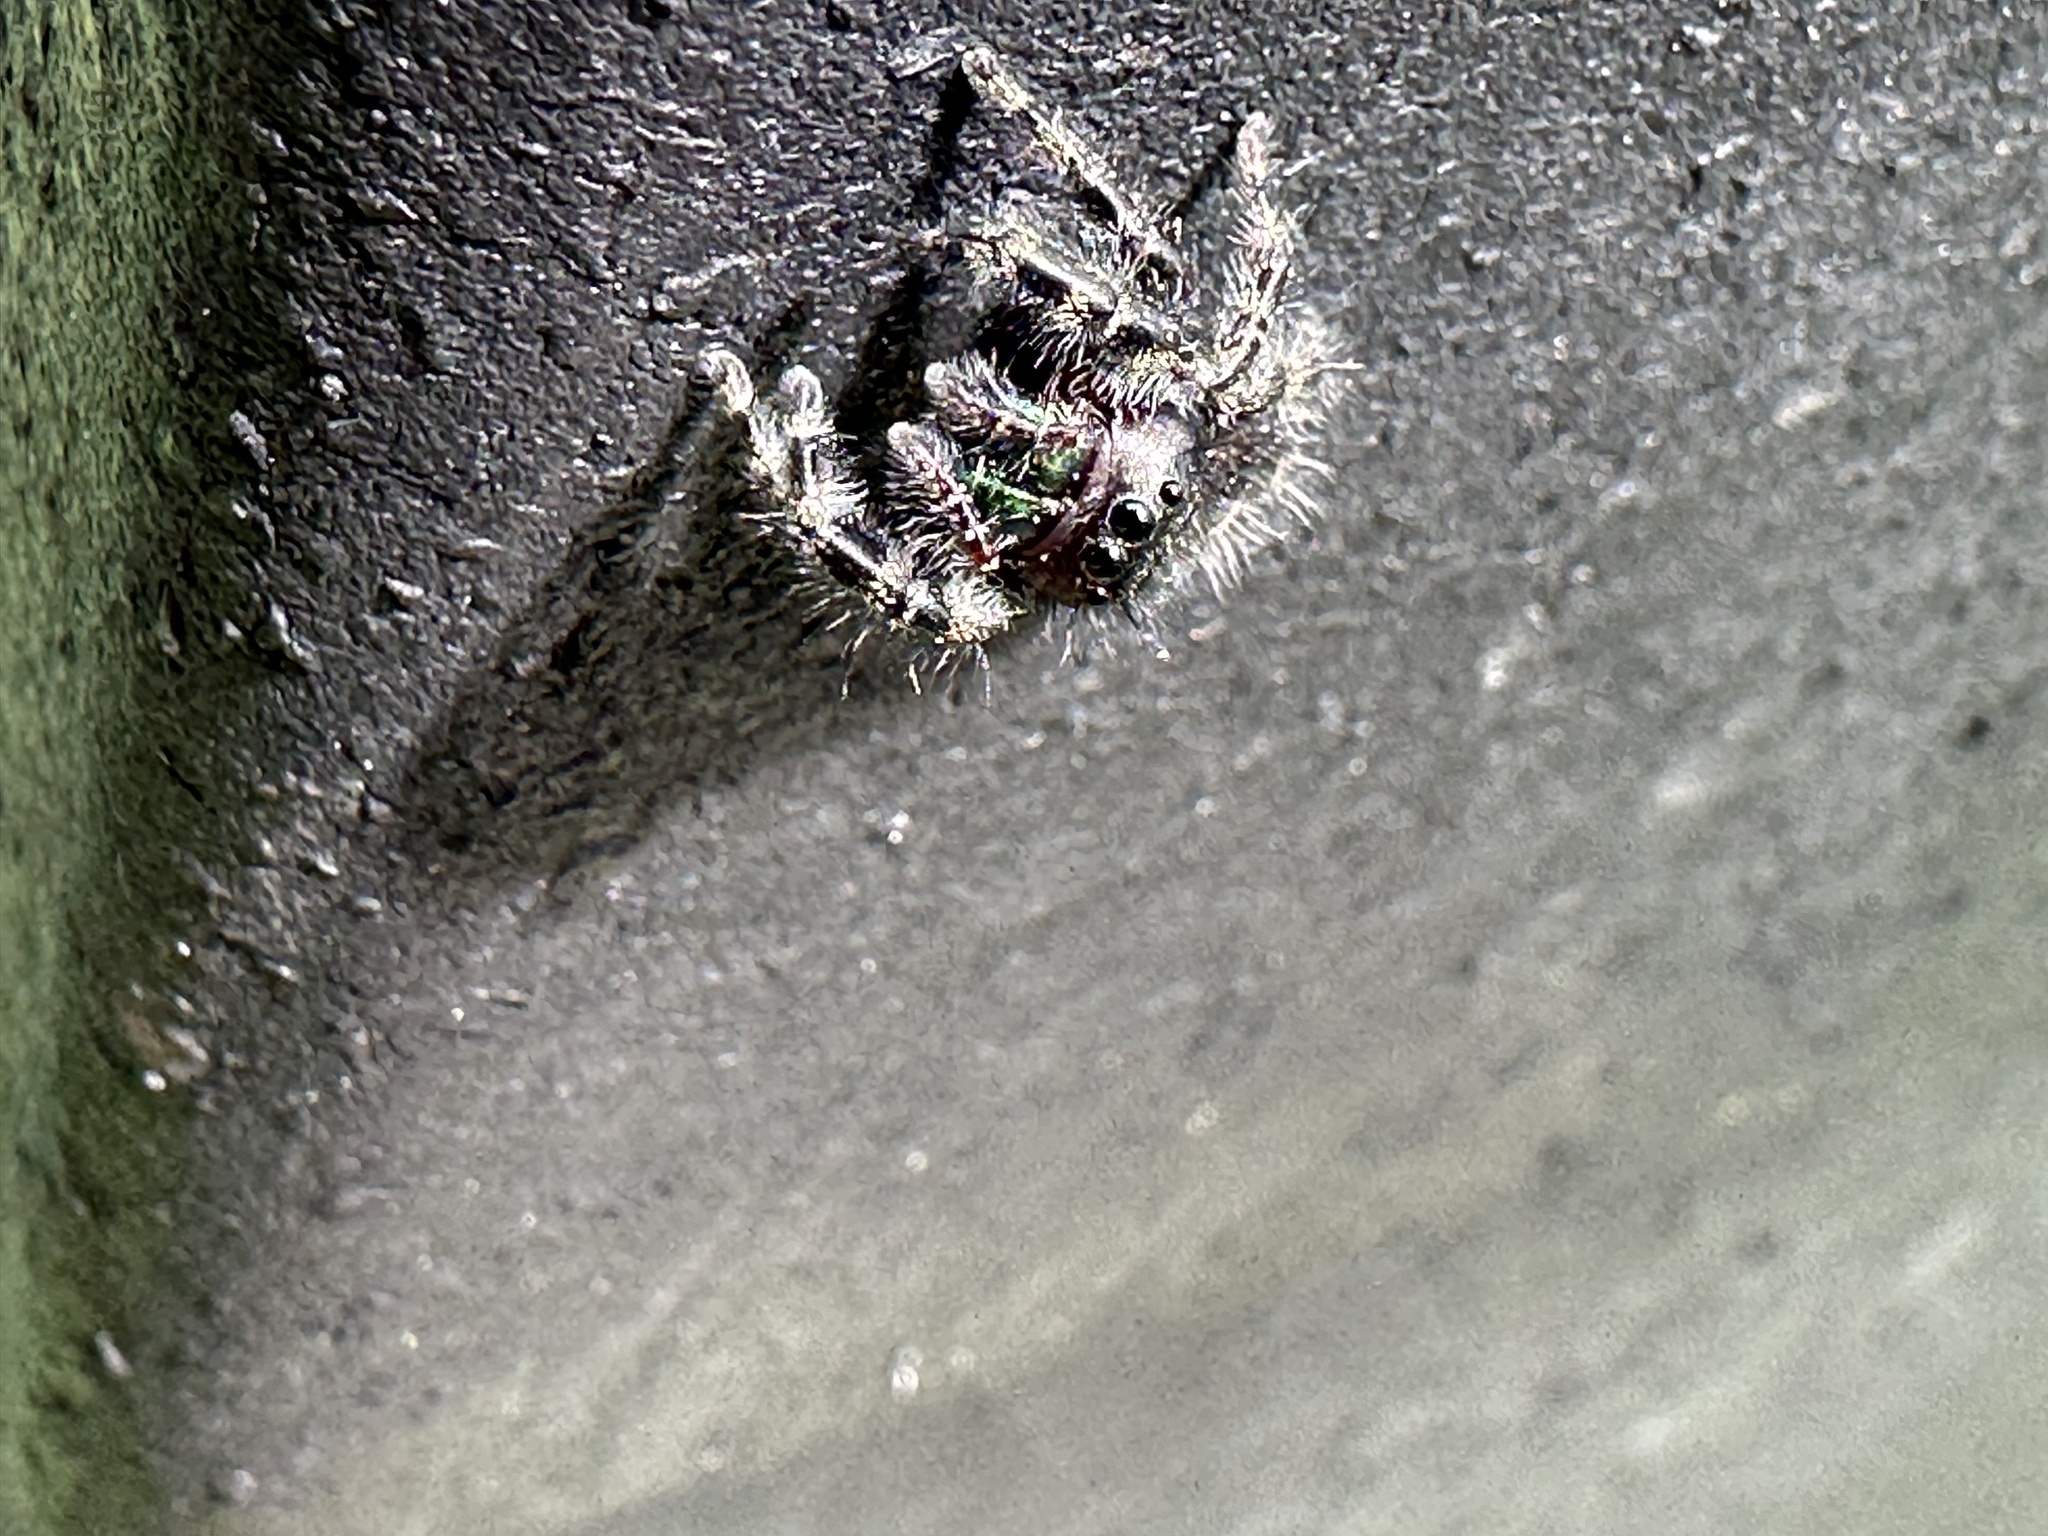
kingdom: Animalia
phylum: Arthropoda
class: Arachnida
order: Araneae
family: Salticidae
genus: Phidippus
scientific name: Phidippus audax
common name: Bold jumper
